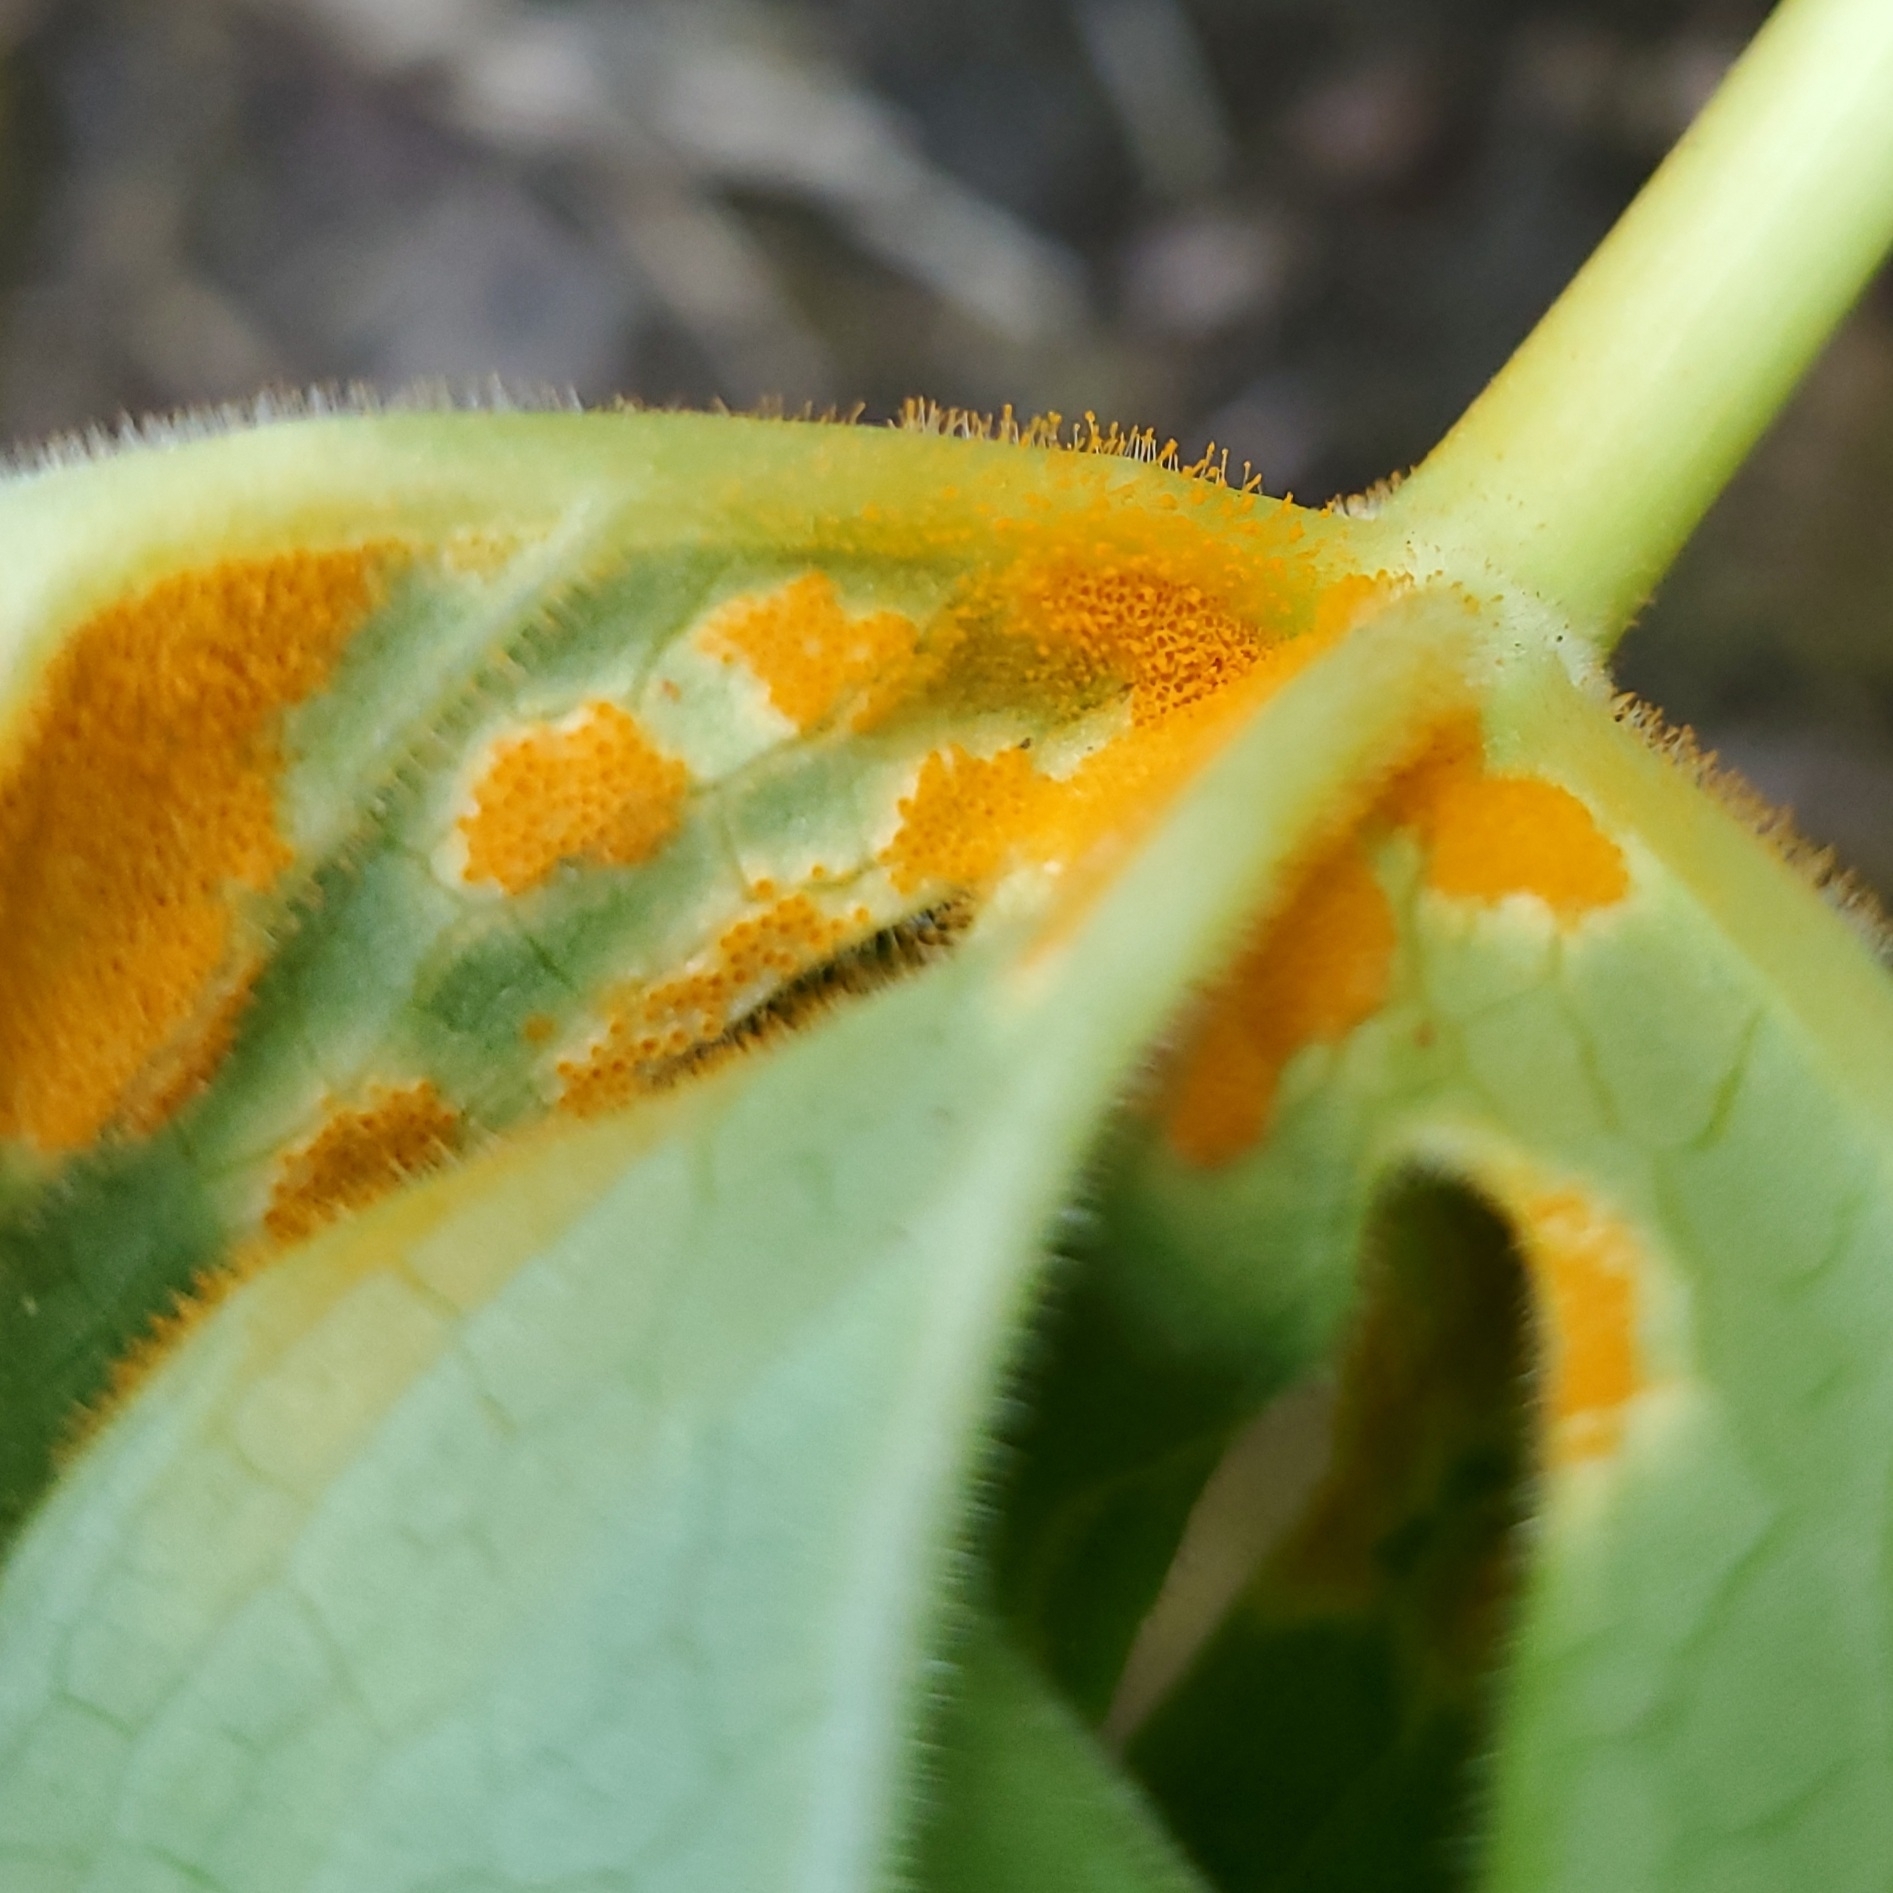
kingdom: Fungi
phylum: Basidiomycota
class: Pucciniomycetes
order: Pucciniales
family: Pucciniaceae
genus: Puccinia
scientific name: Puccinia podophylli
